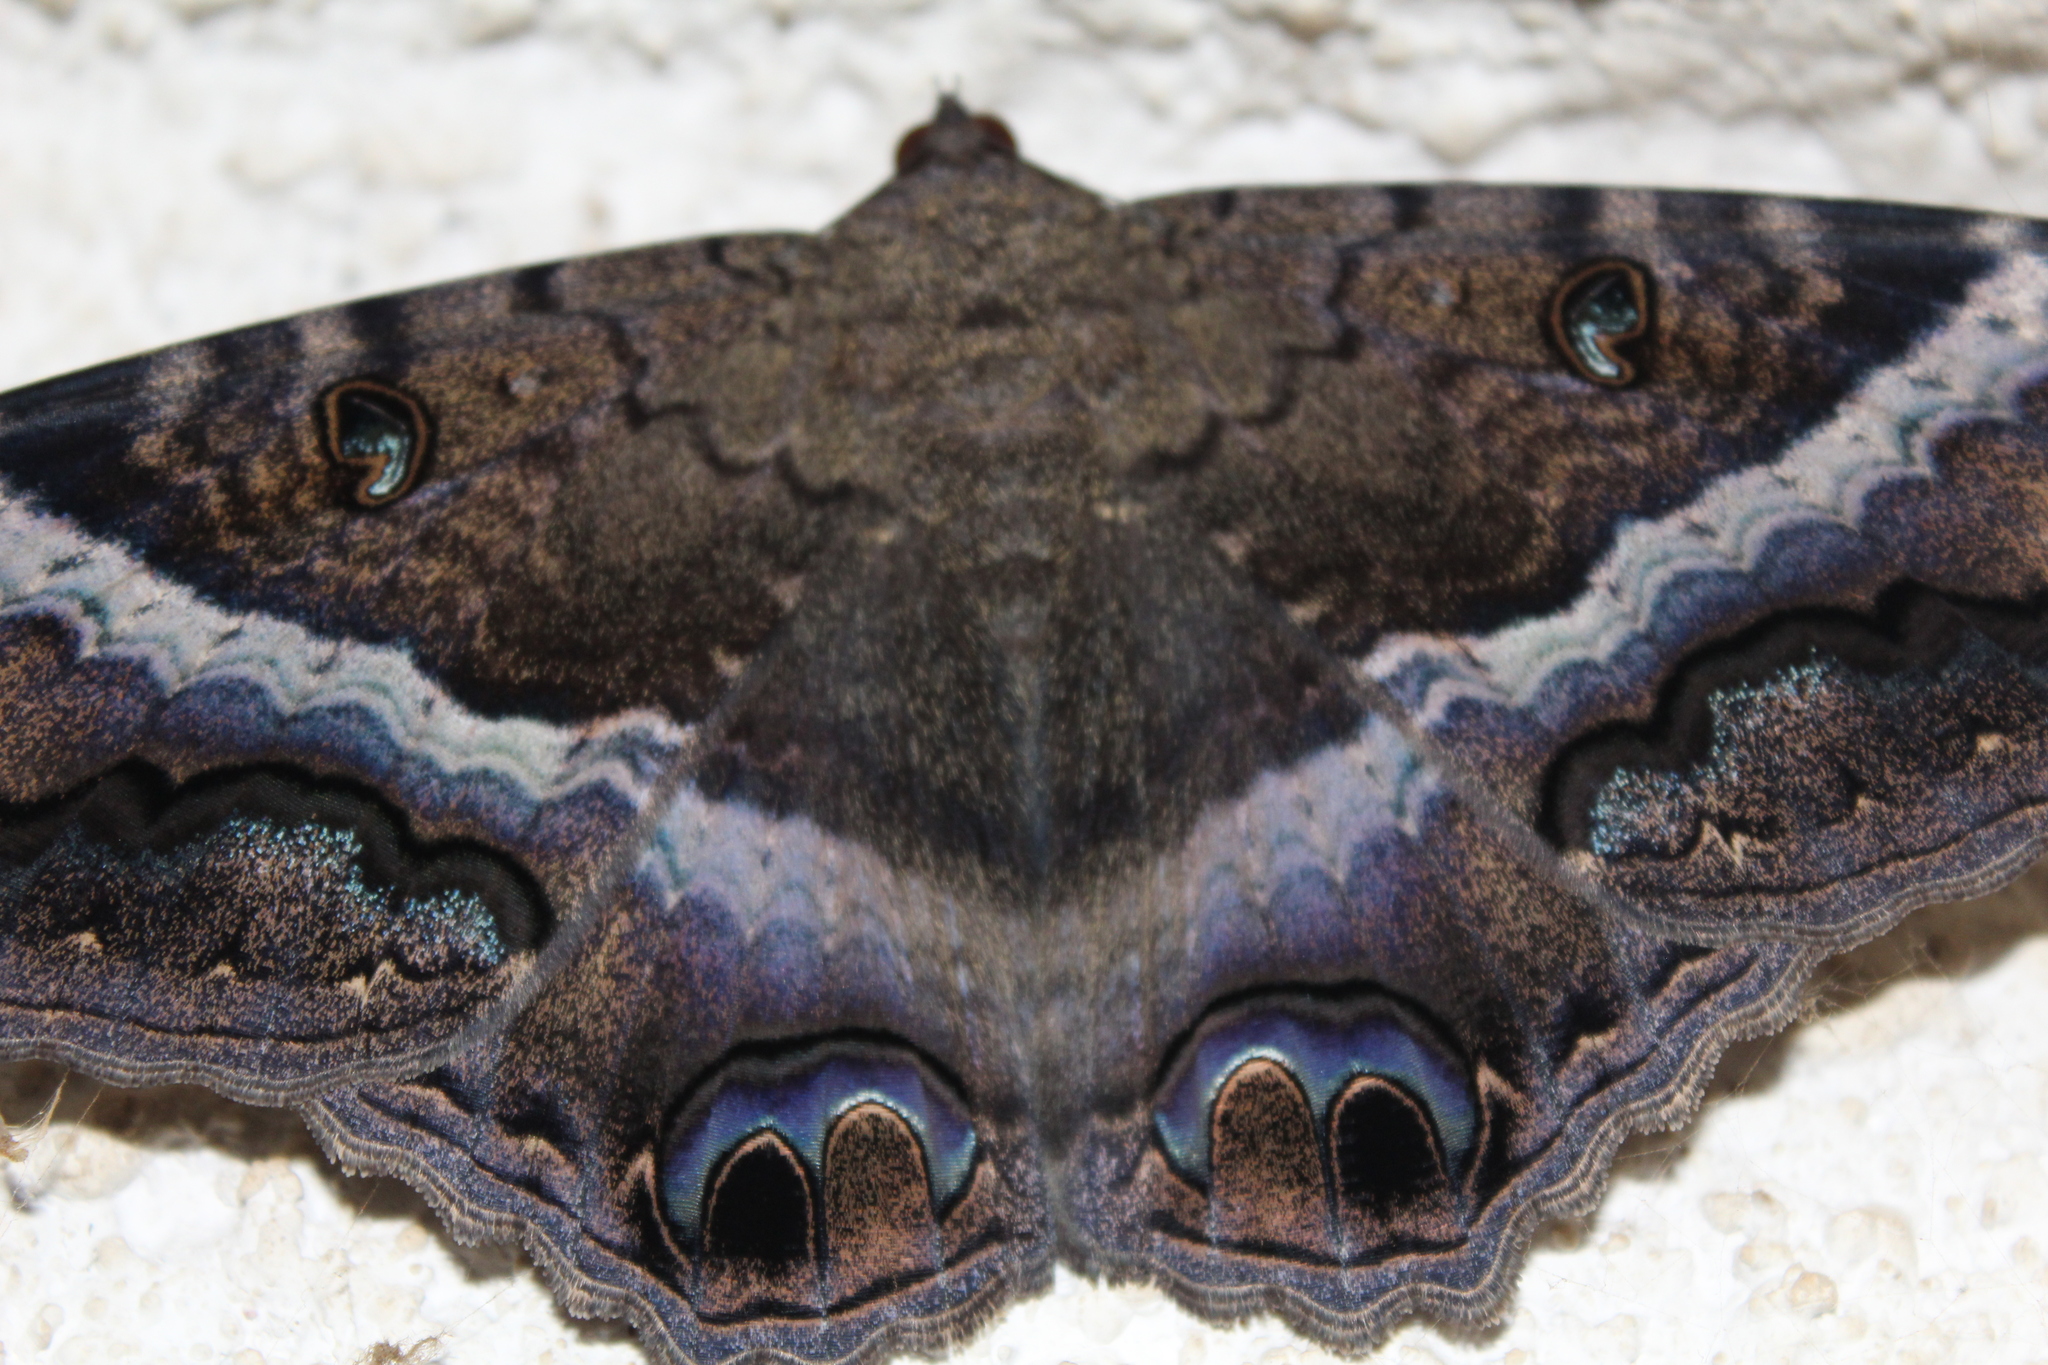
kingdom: Animalia
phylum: Arthropoda
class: Insecta
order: Lepidoptera
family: Erebidae
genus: Ascalapha
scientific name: Ascalapha odorata
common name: Black witch
